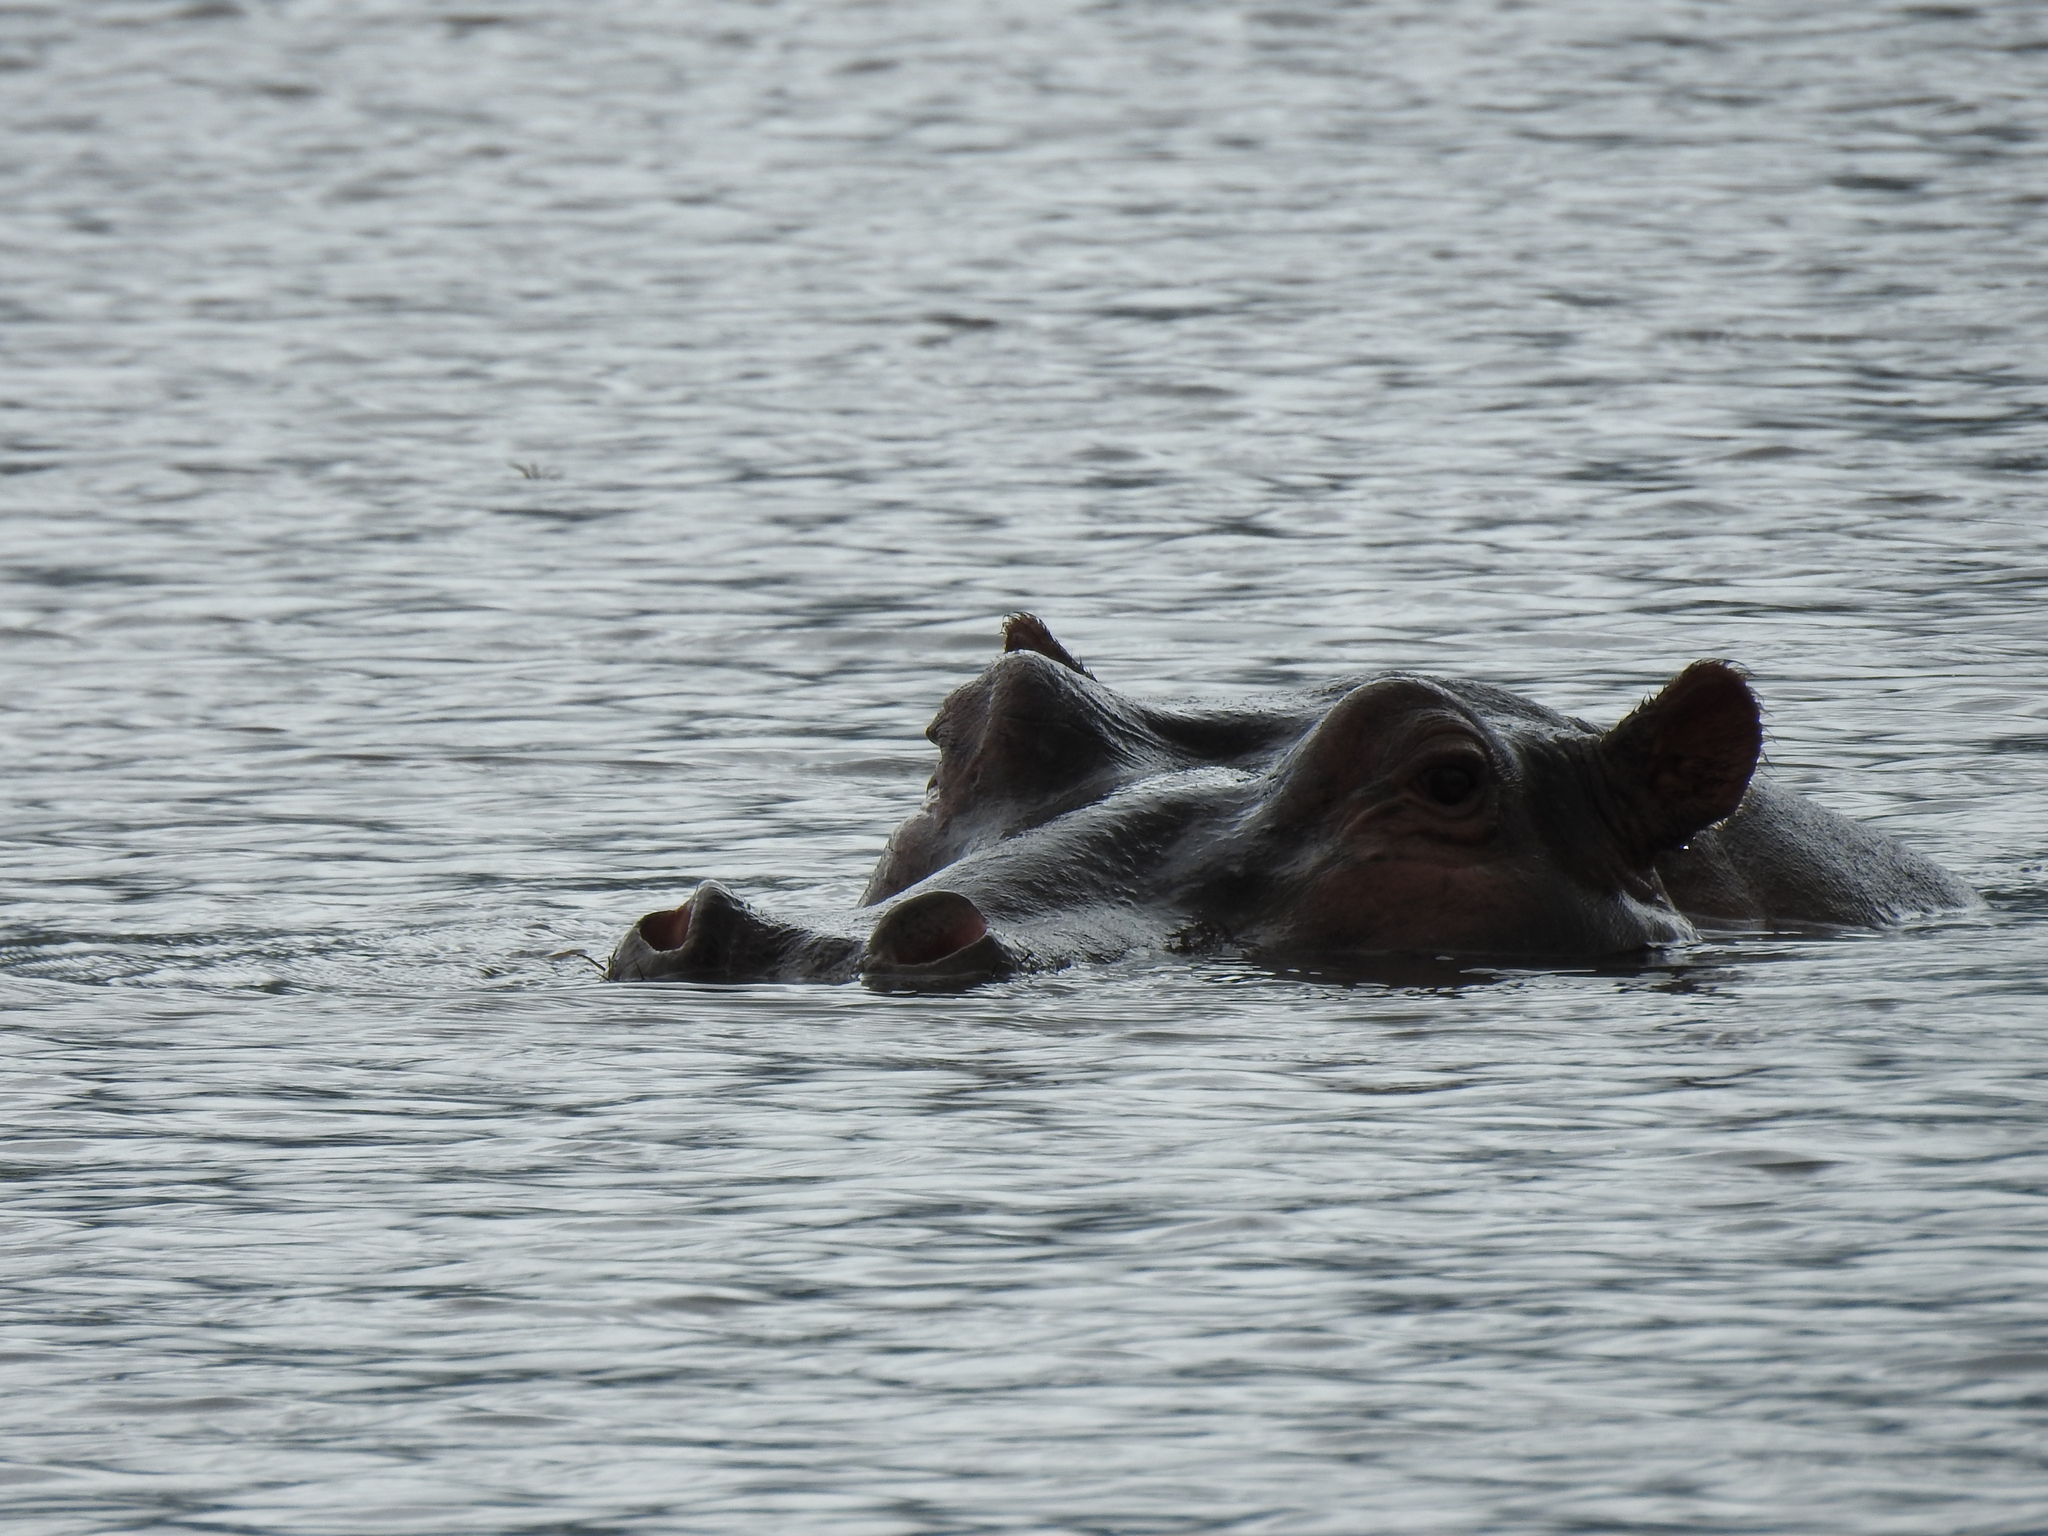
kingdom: Animalia
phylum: Chordata
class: Mammalia
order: Artiodactyla
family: Hippopotamidae
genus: Hippopotamus
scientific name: Hippopotamus amphibius
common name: Common hippopotamus
